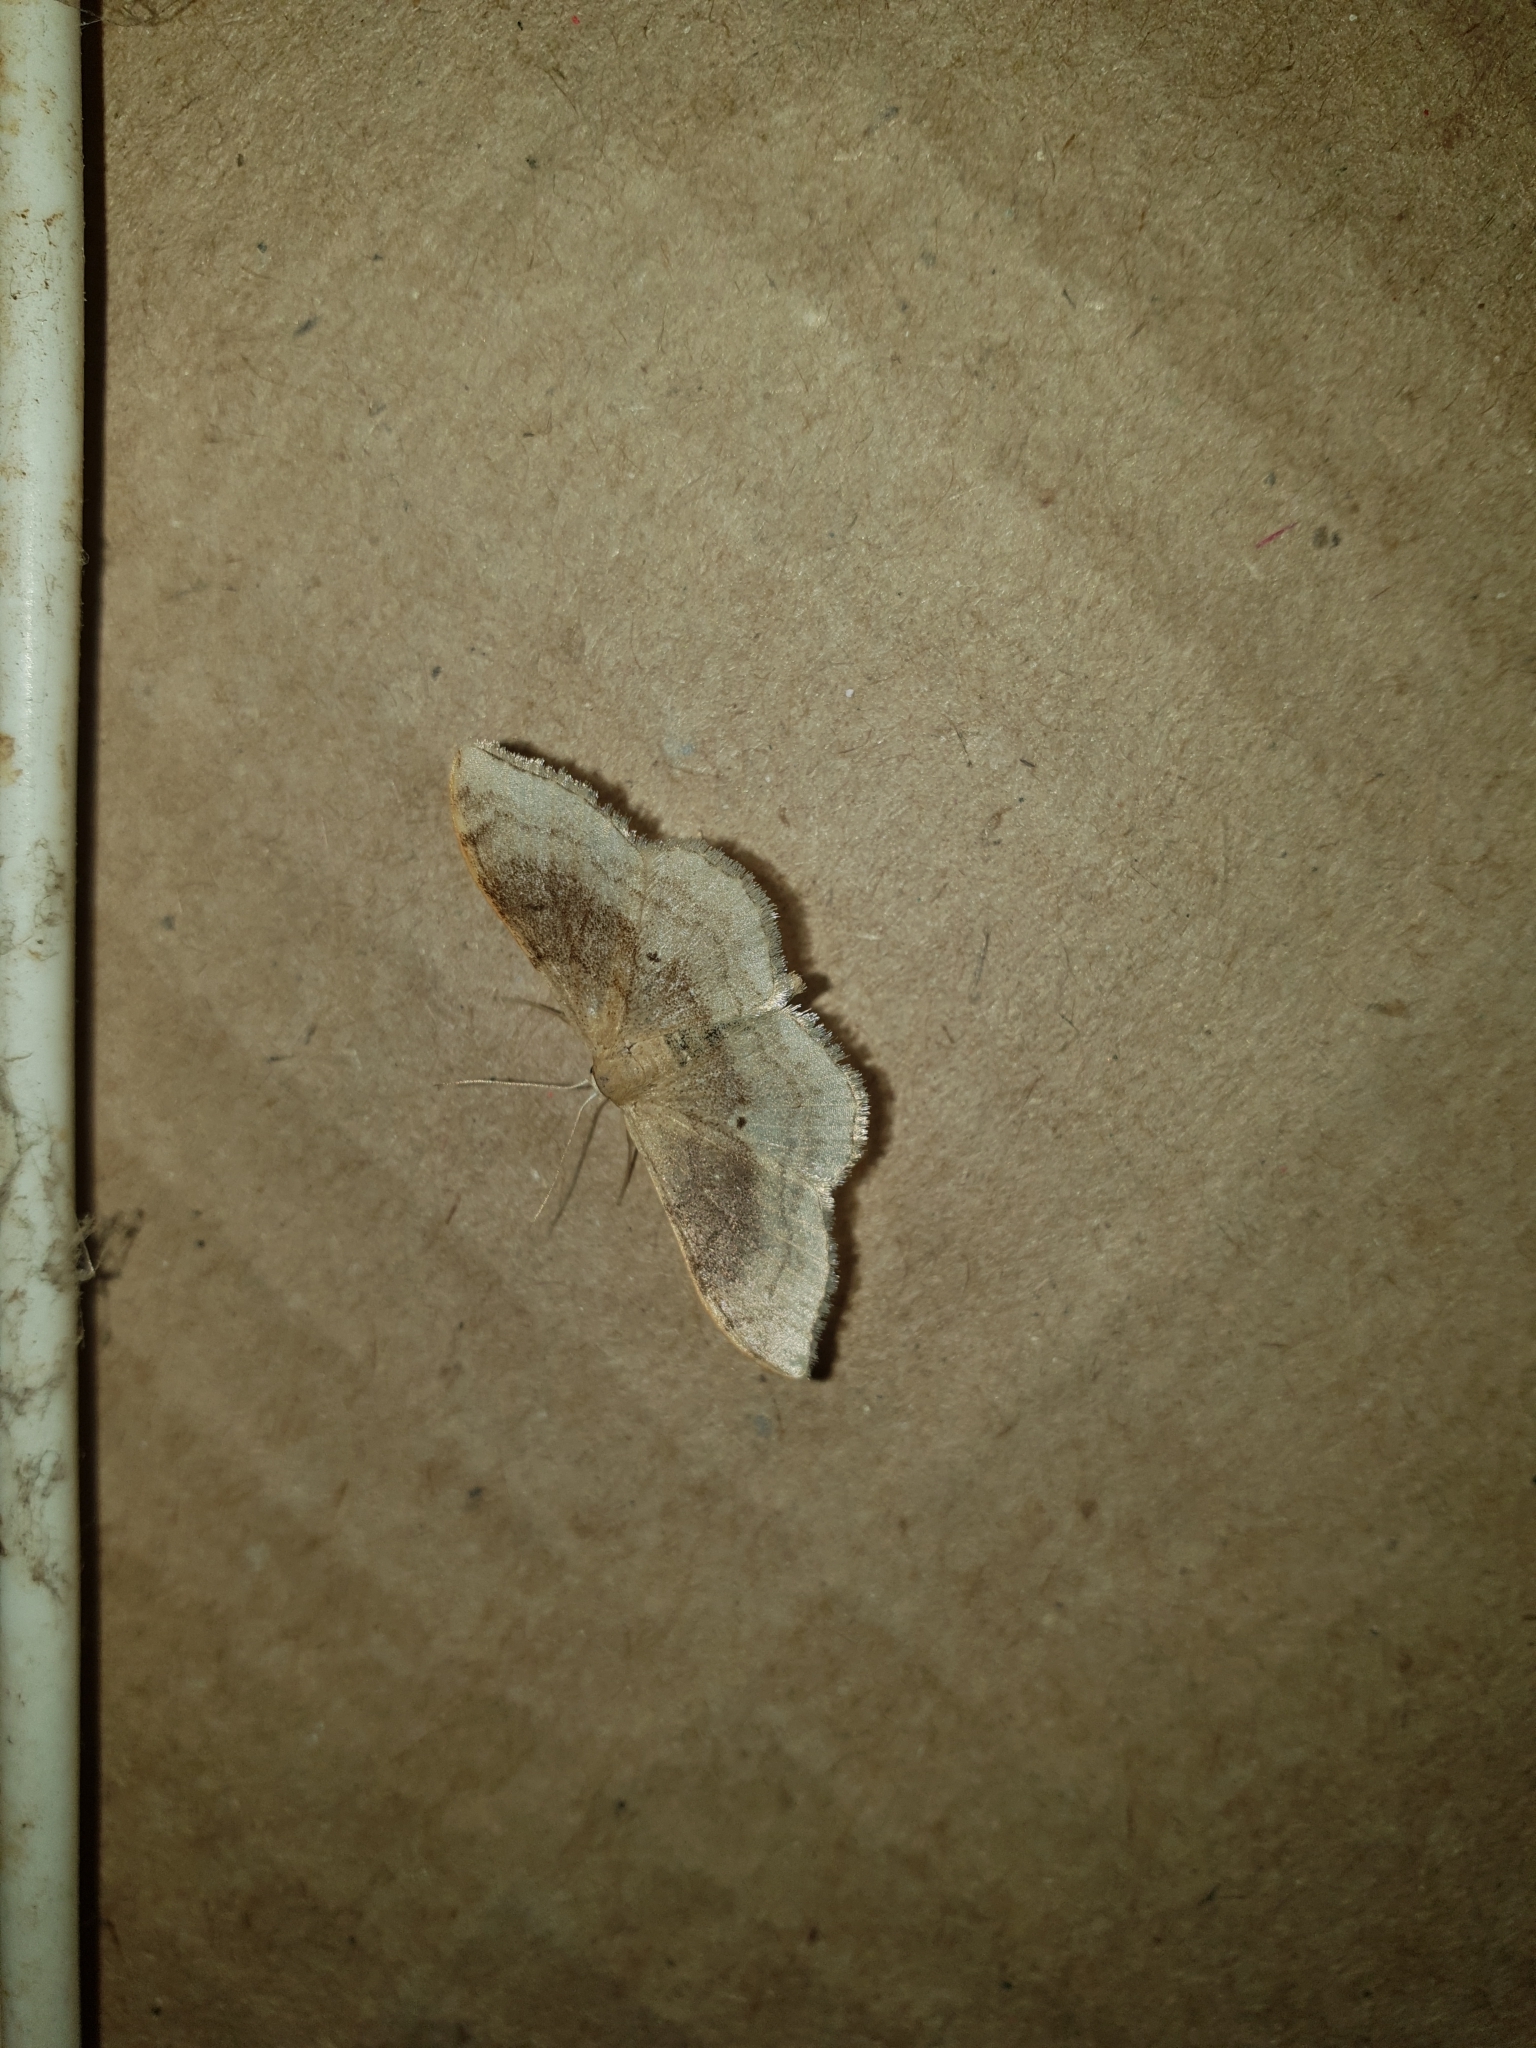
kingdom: Animalia
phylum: Arthropoda
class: Insecta
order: Lepidoptera
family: Geometridae
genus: Idaea
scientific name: Idaea degeneraria
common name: Portland ribbon wave
